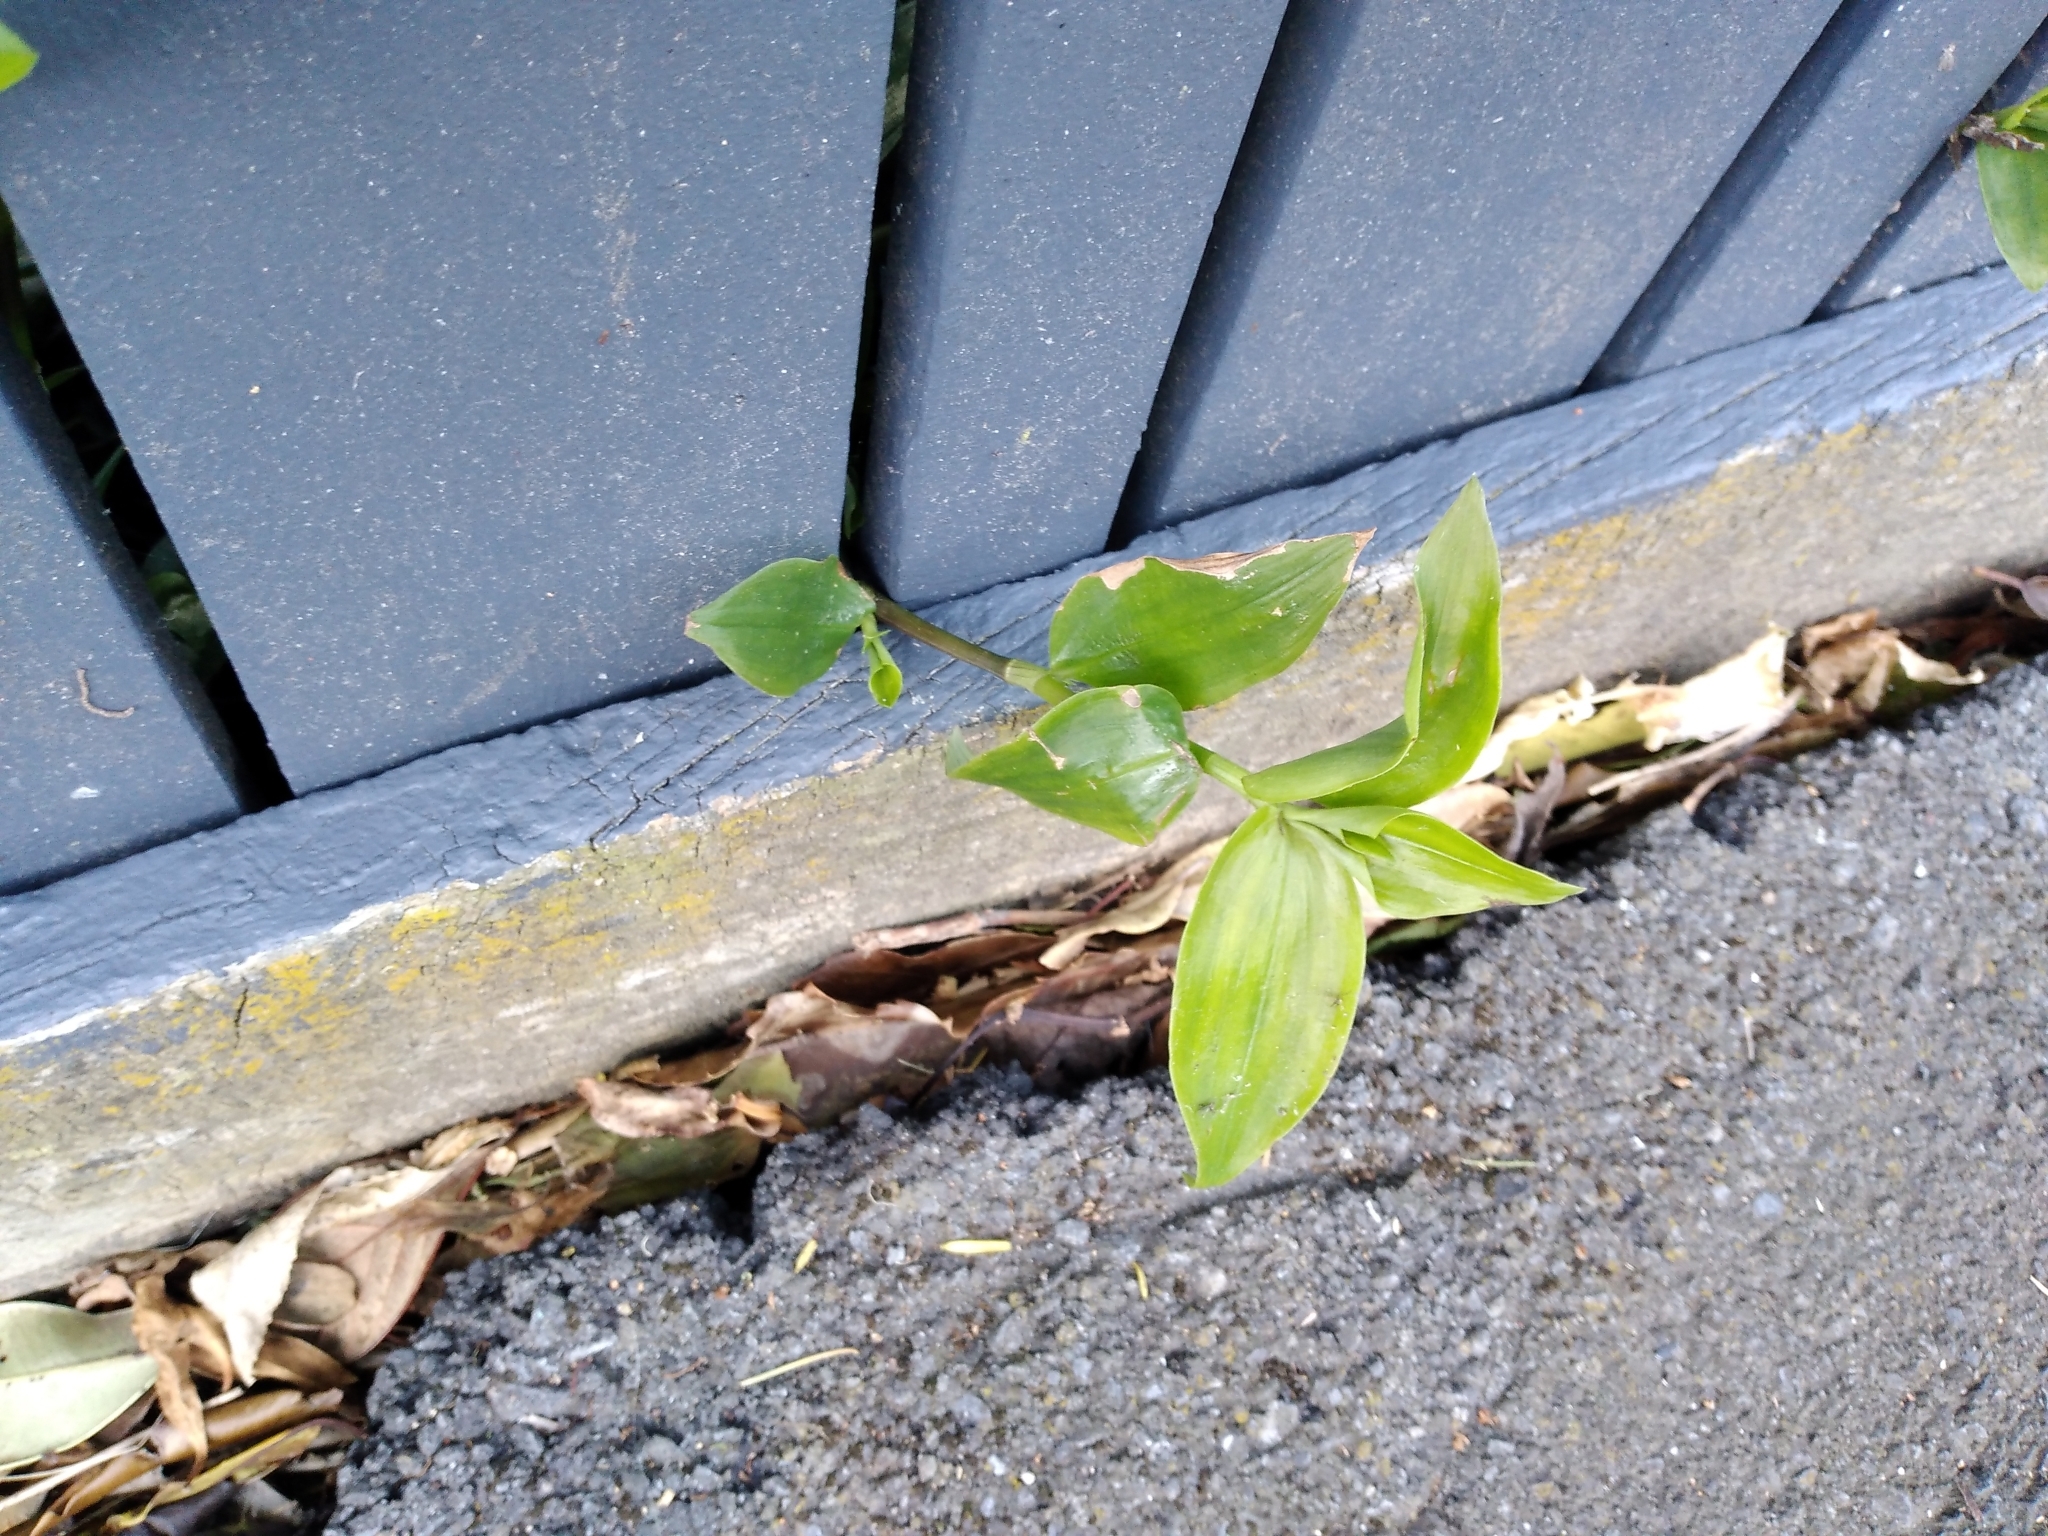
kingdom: Plantae
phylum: Tracheophyta
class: Liliopsida
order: Commelinales
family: Commelinaceae
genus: Tradescantia
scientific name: Tradescantia fluminensis
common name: Wandering-jew
